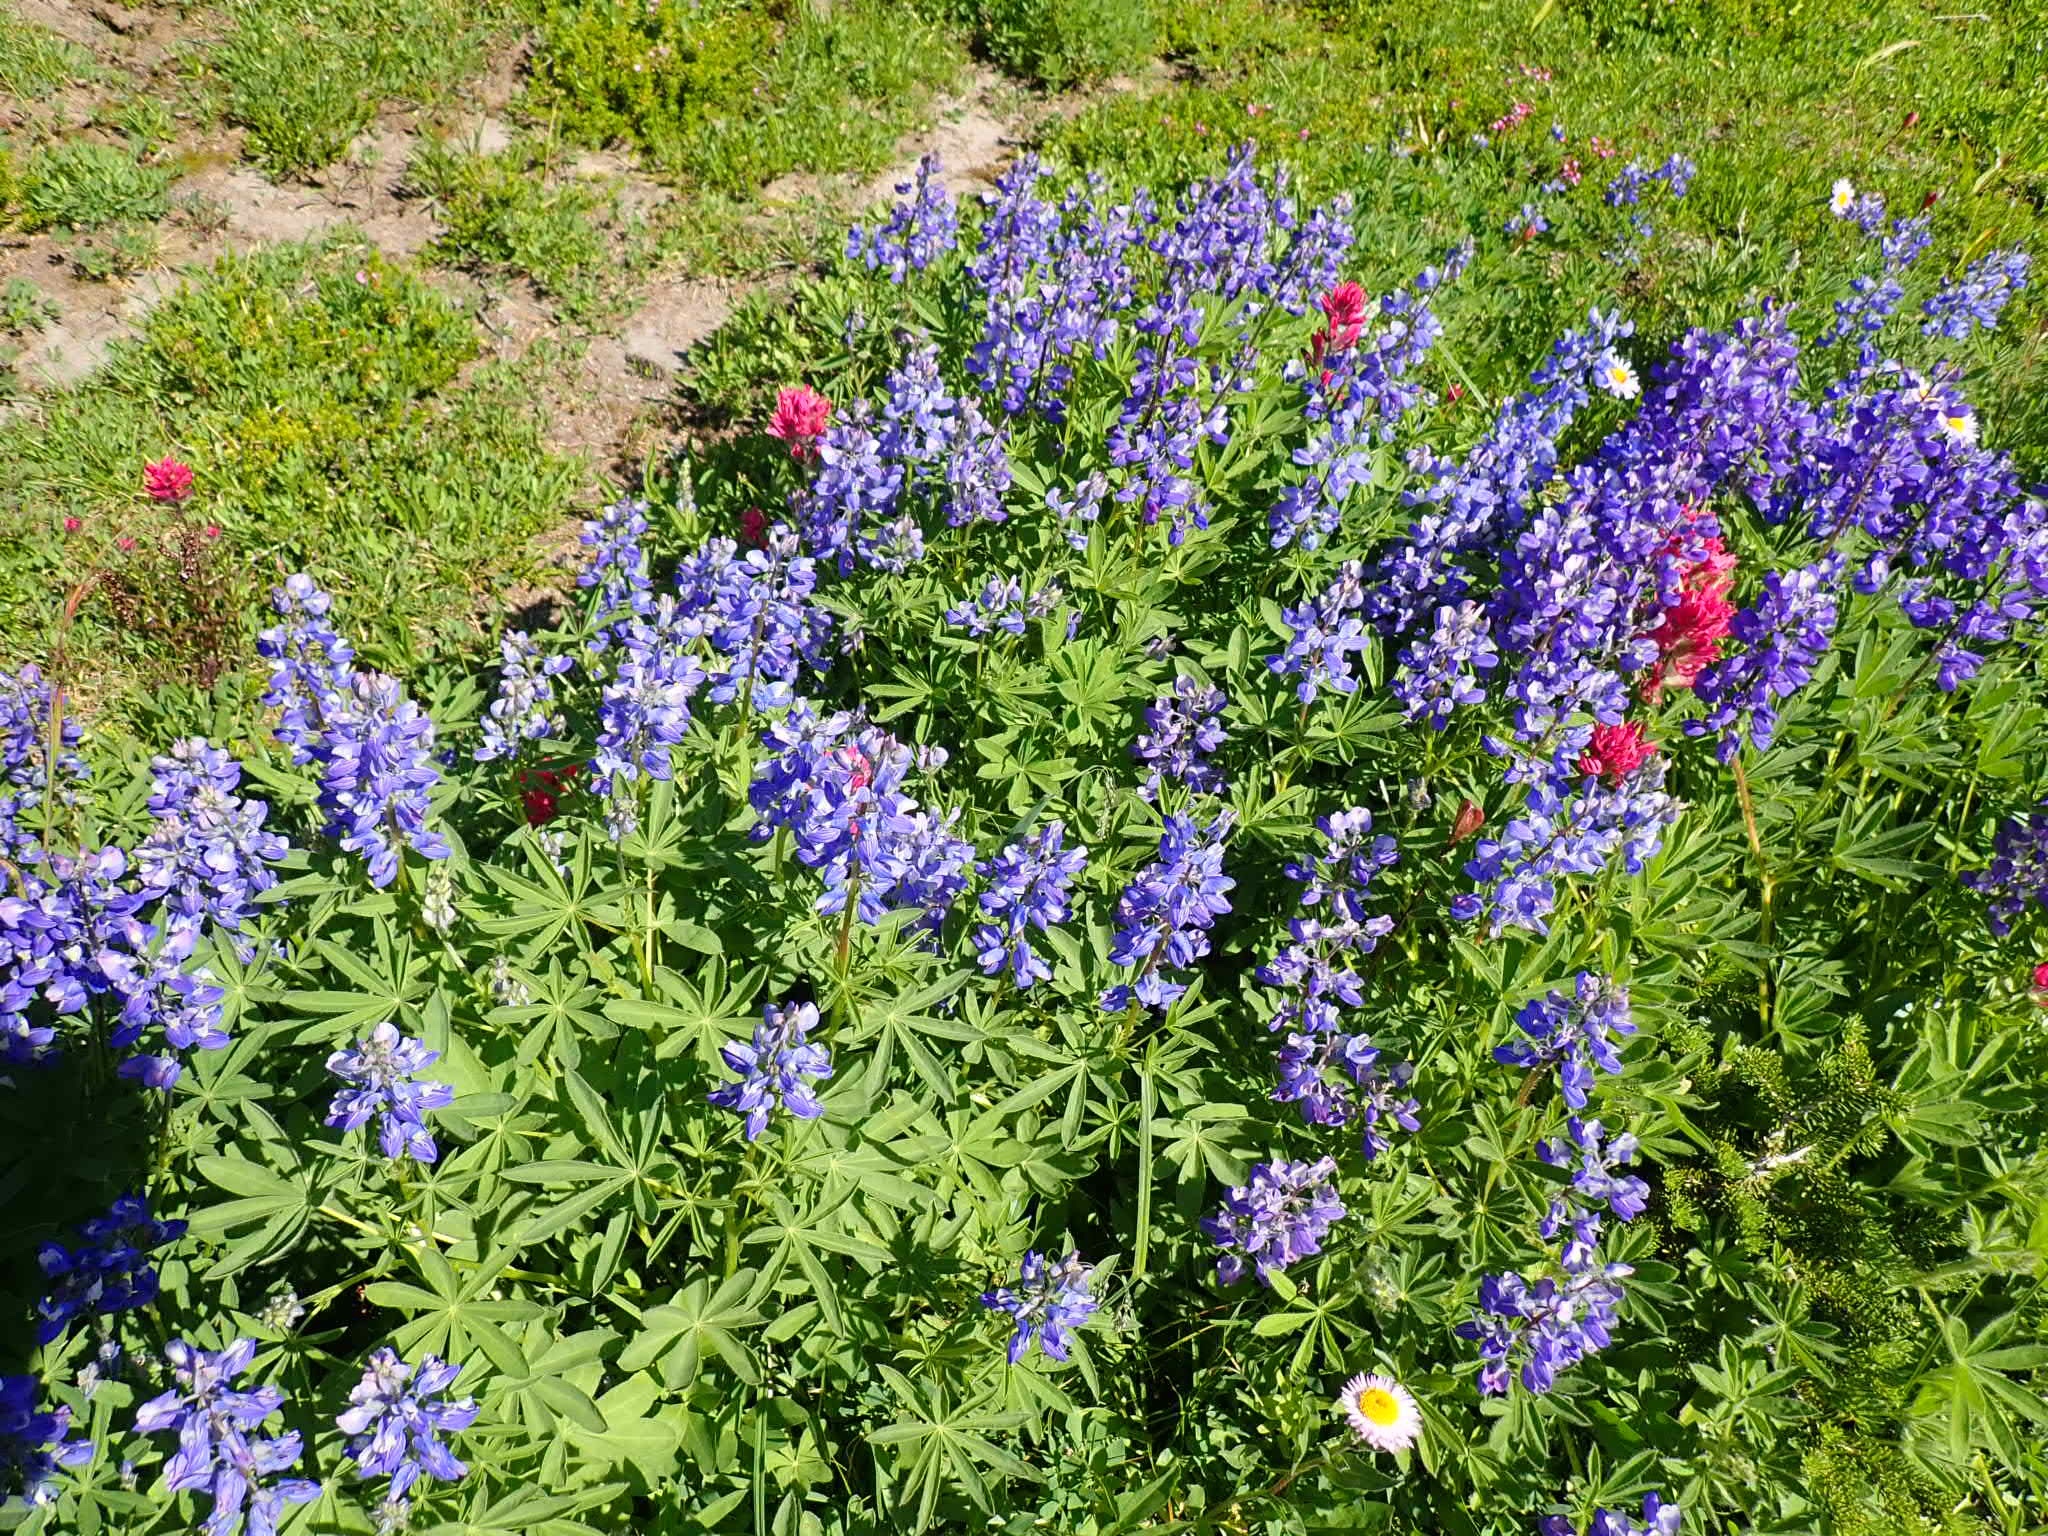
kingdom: Plantae
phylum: Tracheophyta
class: Magnoliopsida
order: Lamiales
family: Orobanchaceae
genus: Castilleja
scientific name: Castilleja parviflora
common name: Mountain paintbrush
